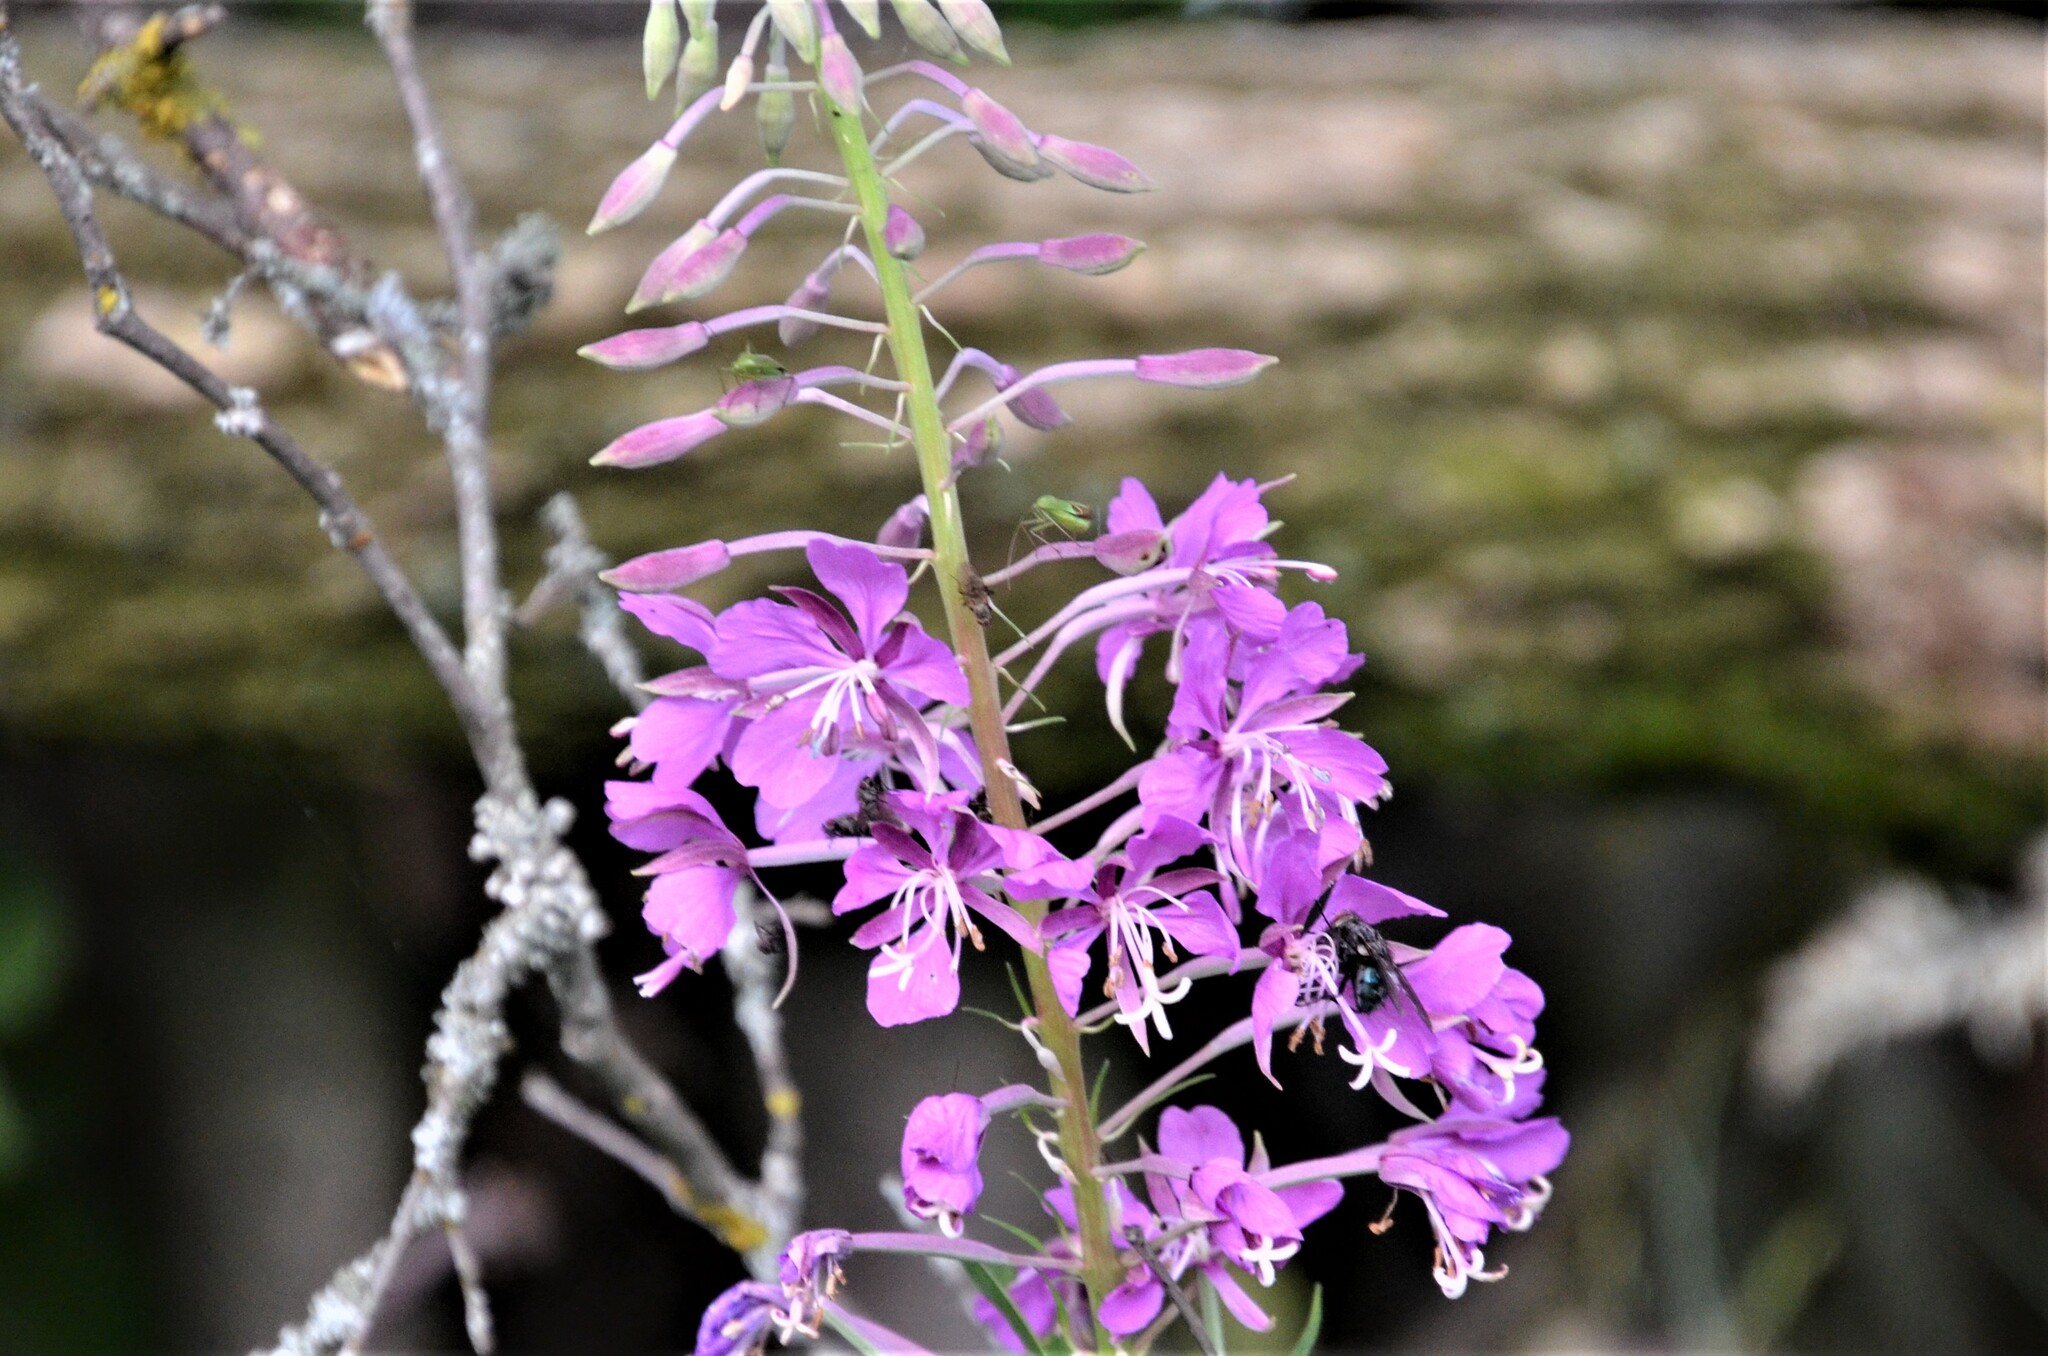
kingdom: Plantae
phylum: Tracheophyta
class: Magnoliopsida
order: Myrtales
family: Onagraceae
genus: Chamaenerion
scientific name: Chamaenerion angustifolium
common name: Fireweed
